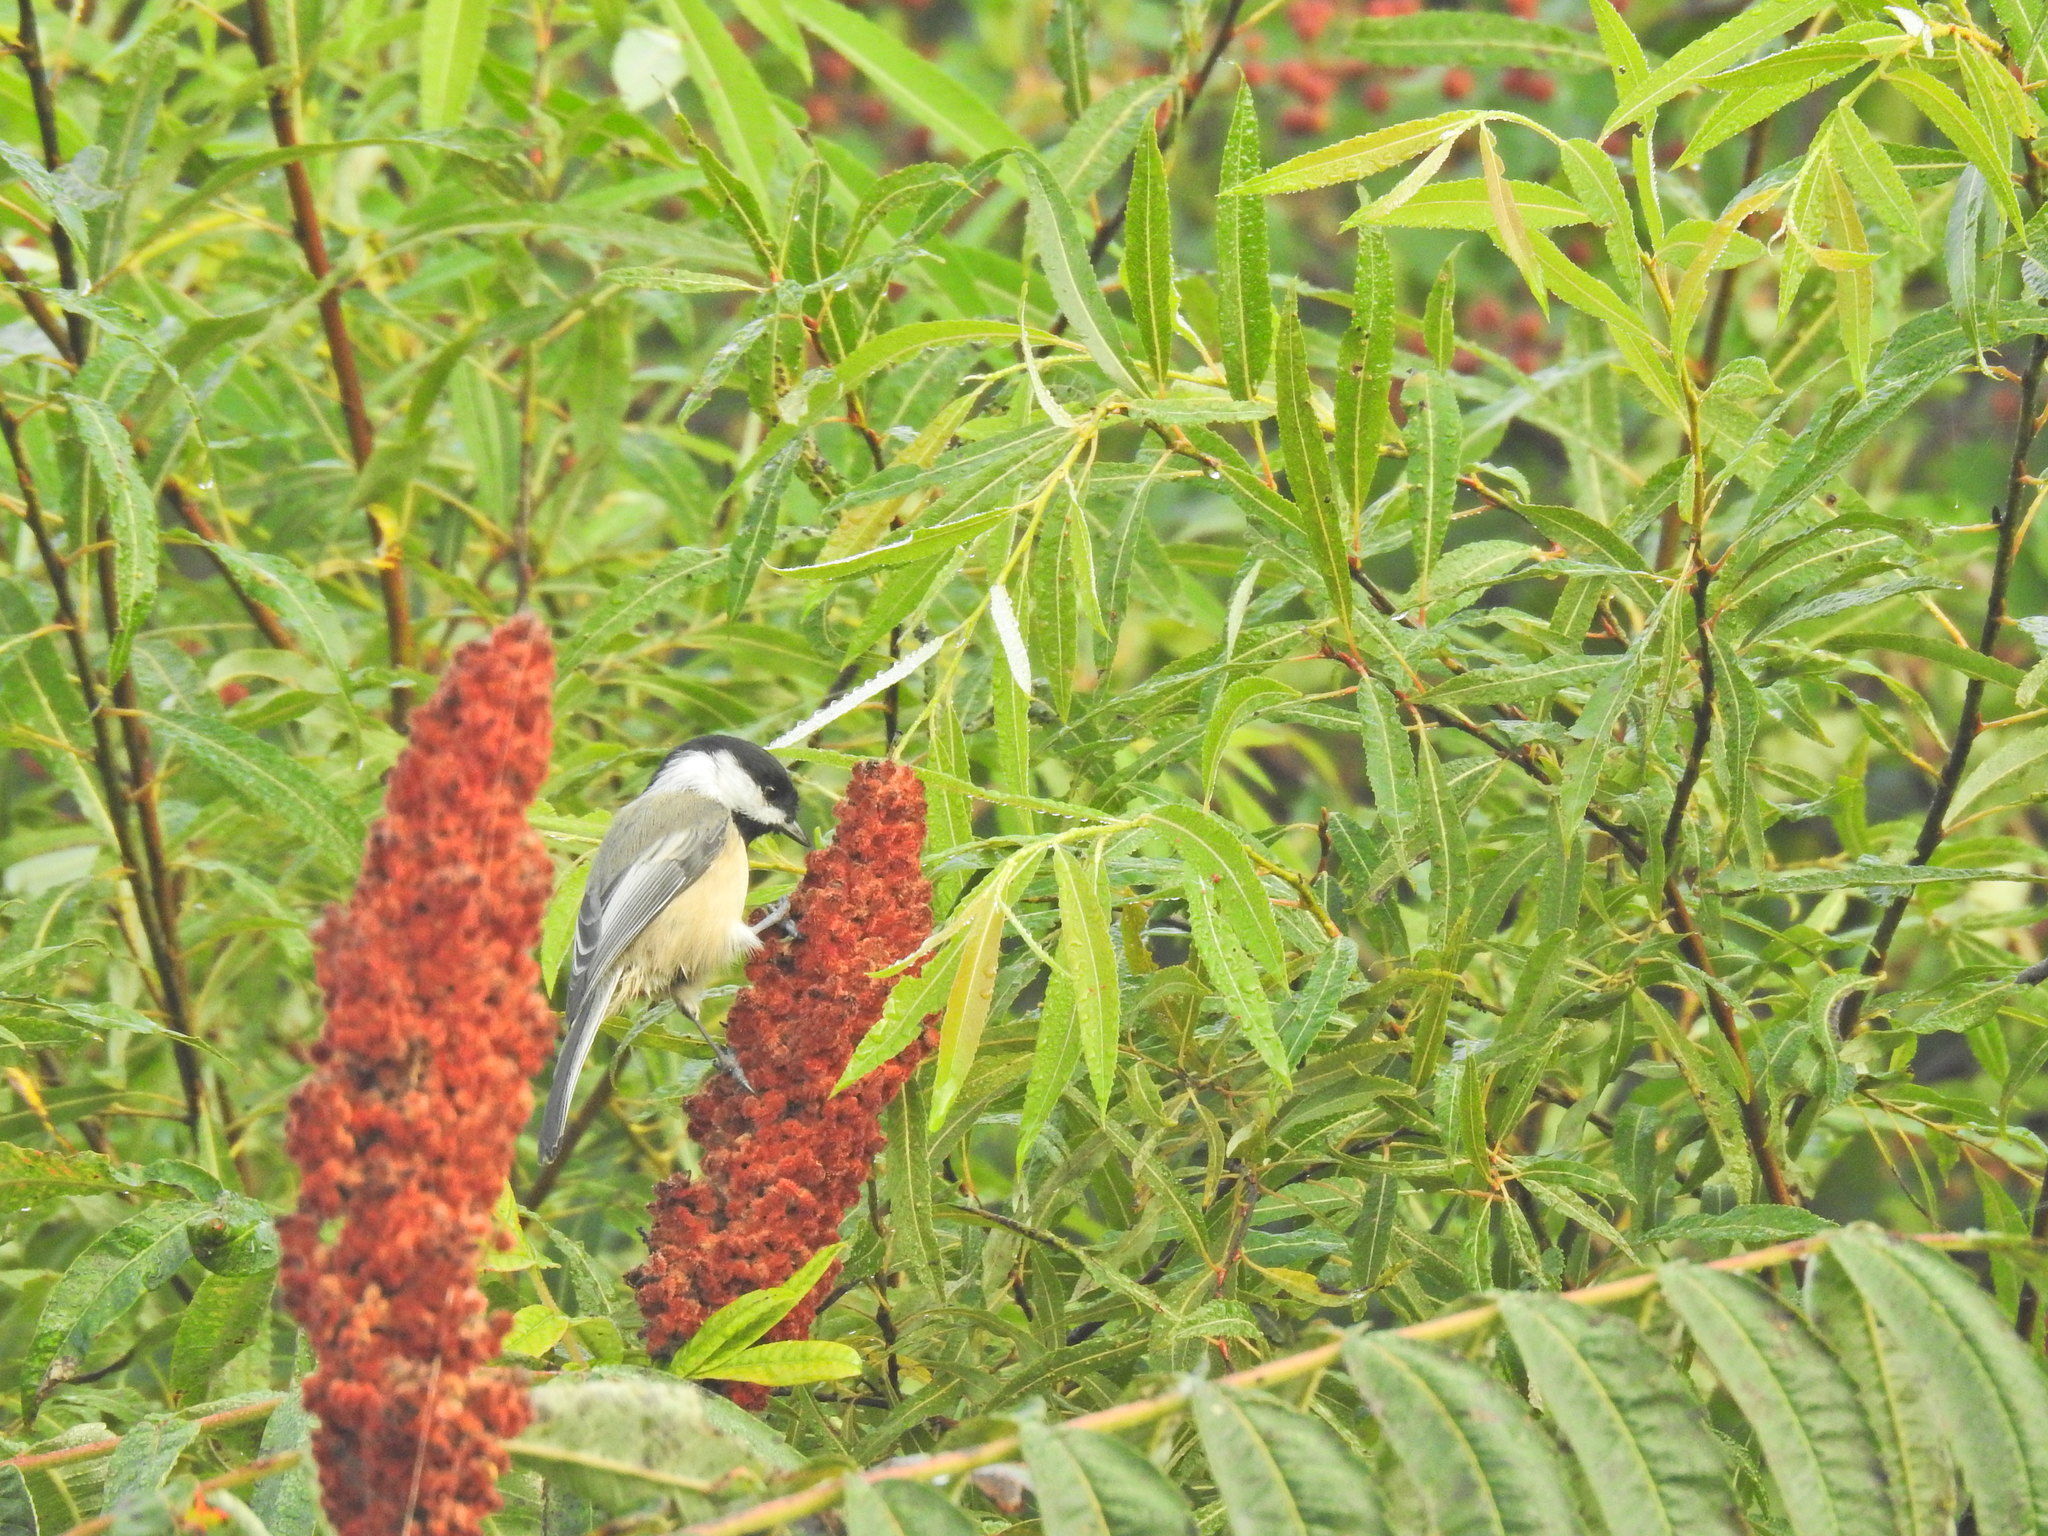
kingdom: Animalia
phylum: Chordata
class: Aves
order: Passeriformes
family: Paridae
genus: Poecile
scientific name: Poecile atricapillus
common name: Black-capped chickadee
